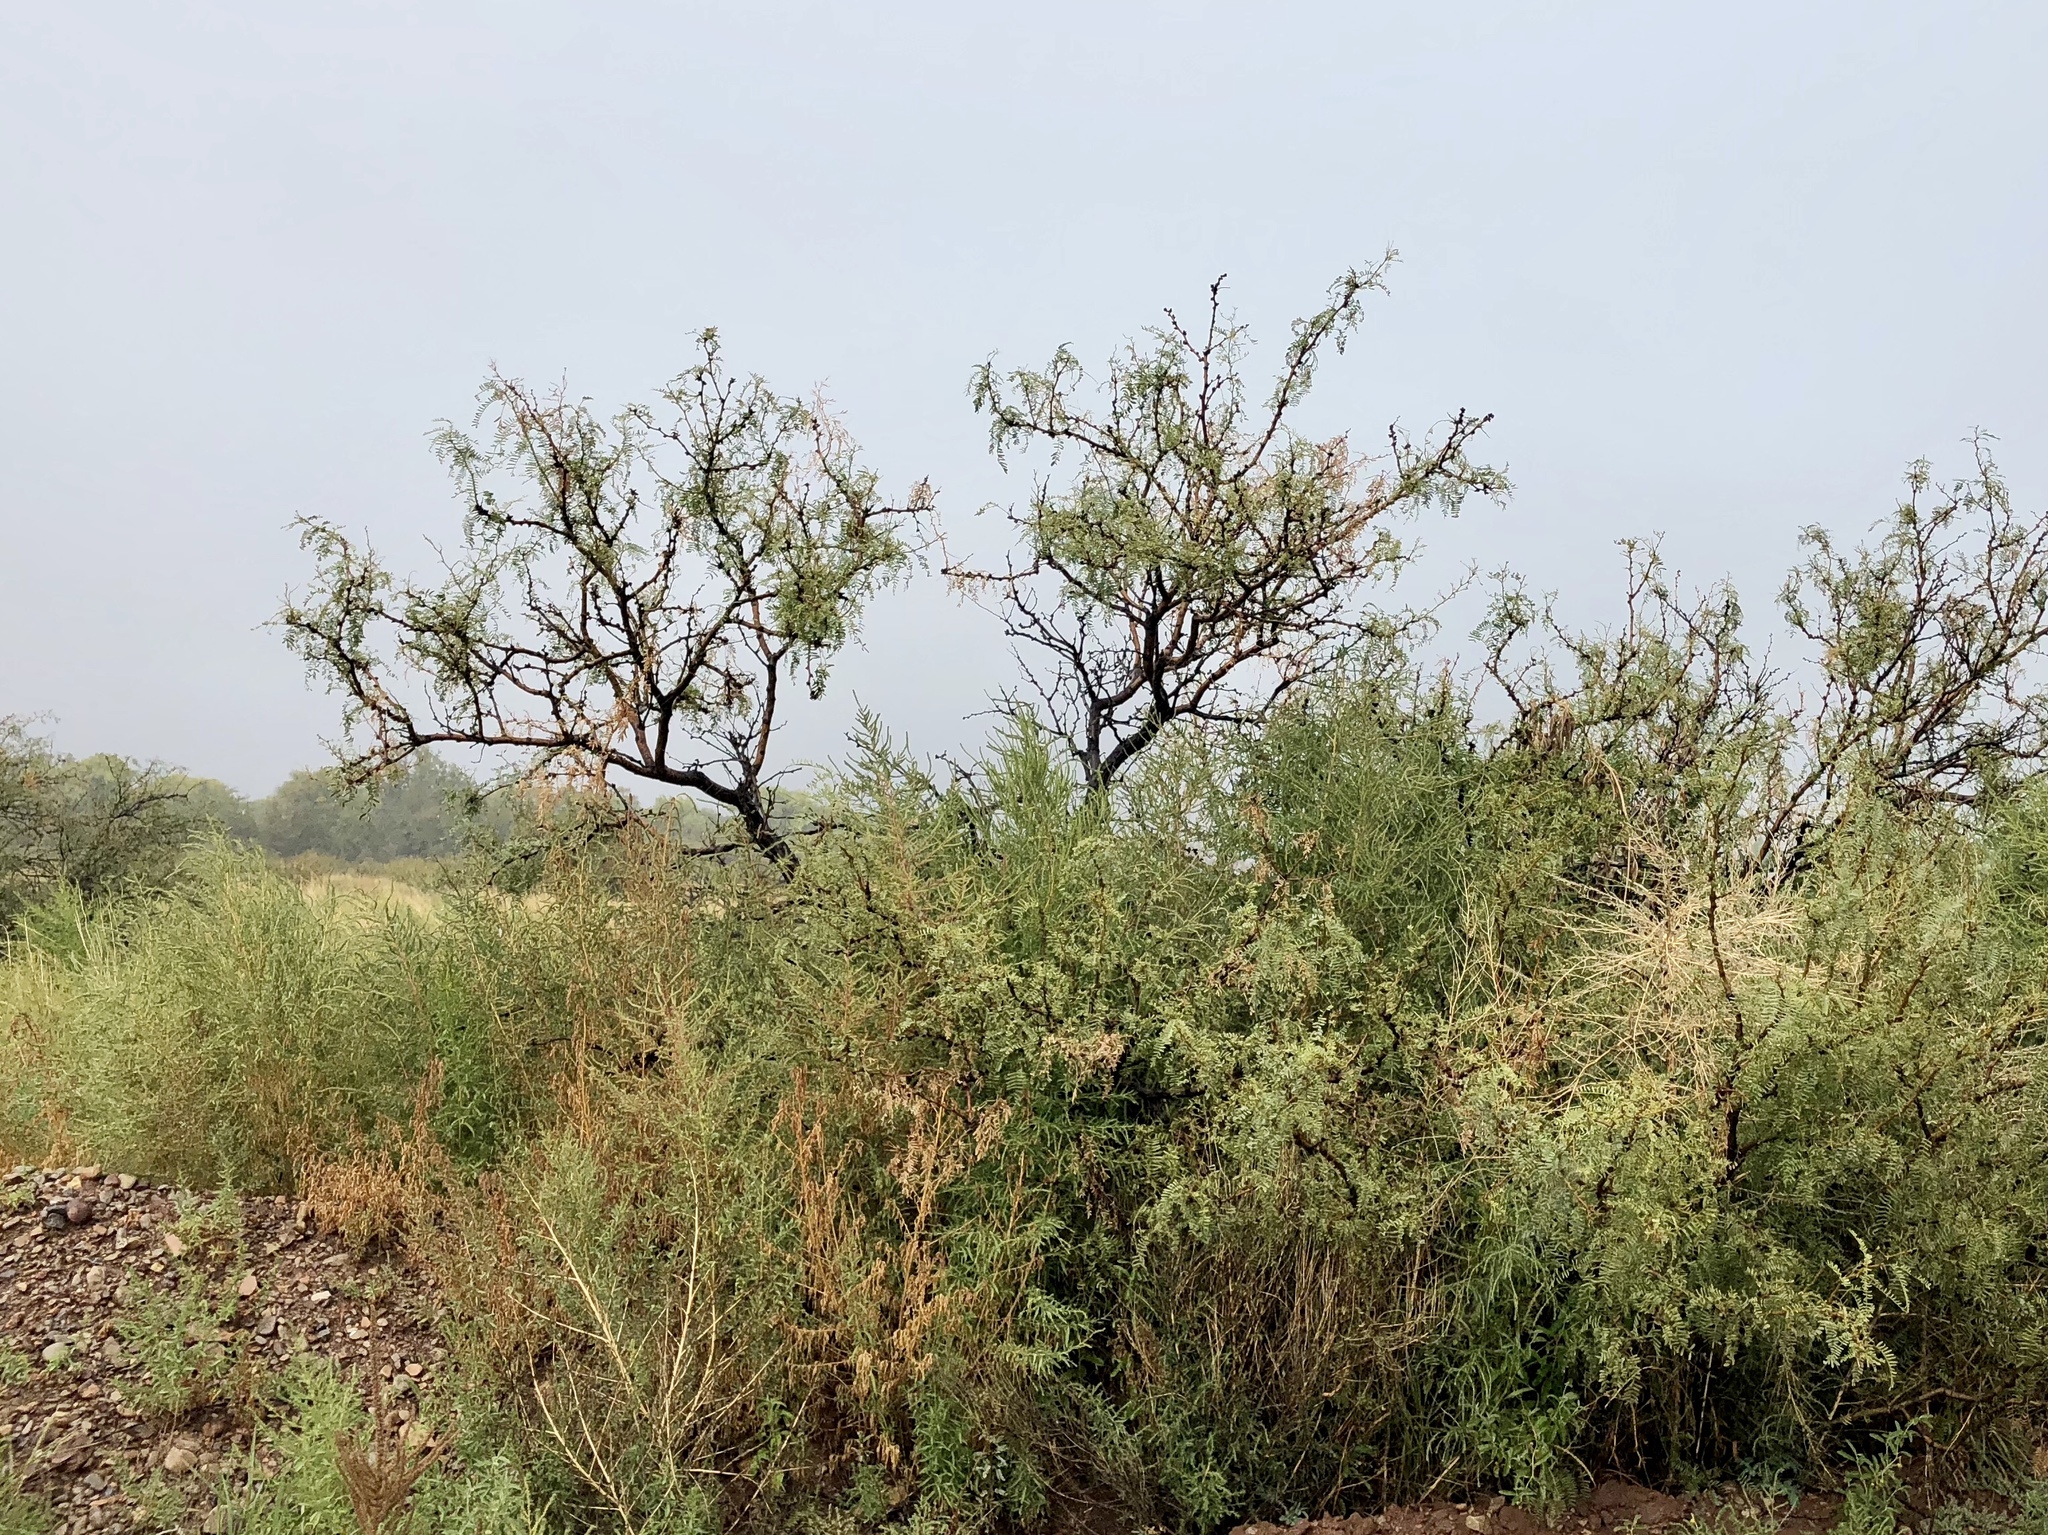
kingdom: Plantae
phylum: Tracheophyta
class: Magnoliopsida
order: Fabales
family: Fabaceae
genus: Prosopis
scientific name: Prosopis glandulosa
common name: Honey mesquite
